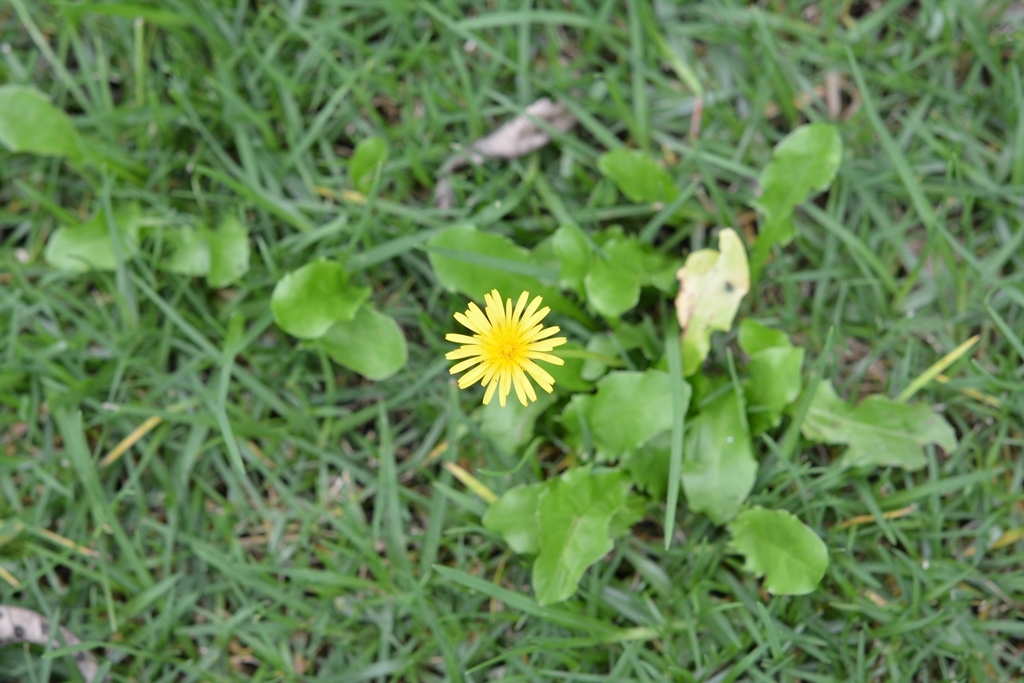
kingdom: Plantae
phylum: Tracheophyta
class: Magnoliopsida
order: Asterales
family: Asteraceae
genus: Taraxacum
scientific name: Taraxacum officinale
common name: Common dandelion
